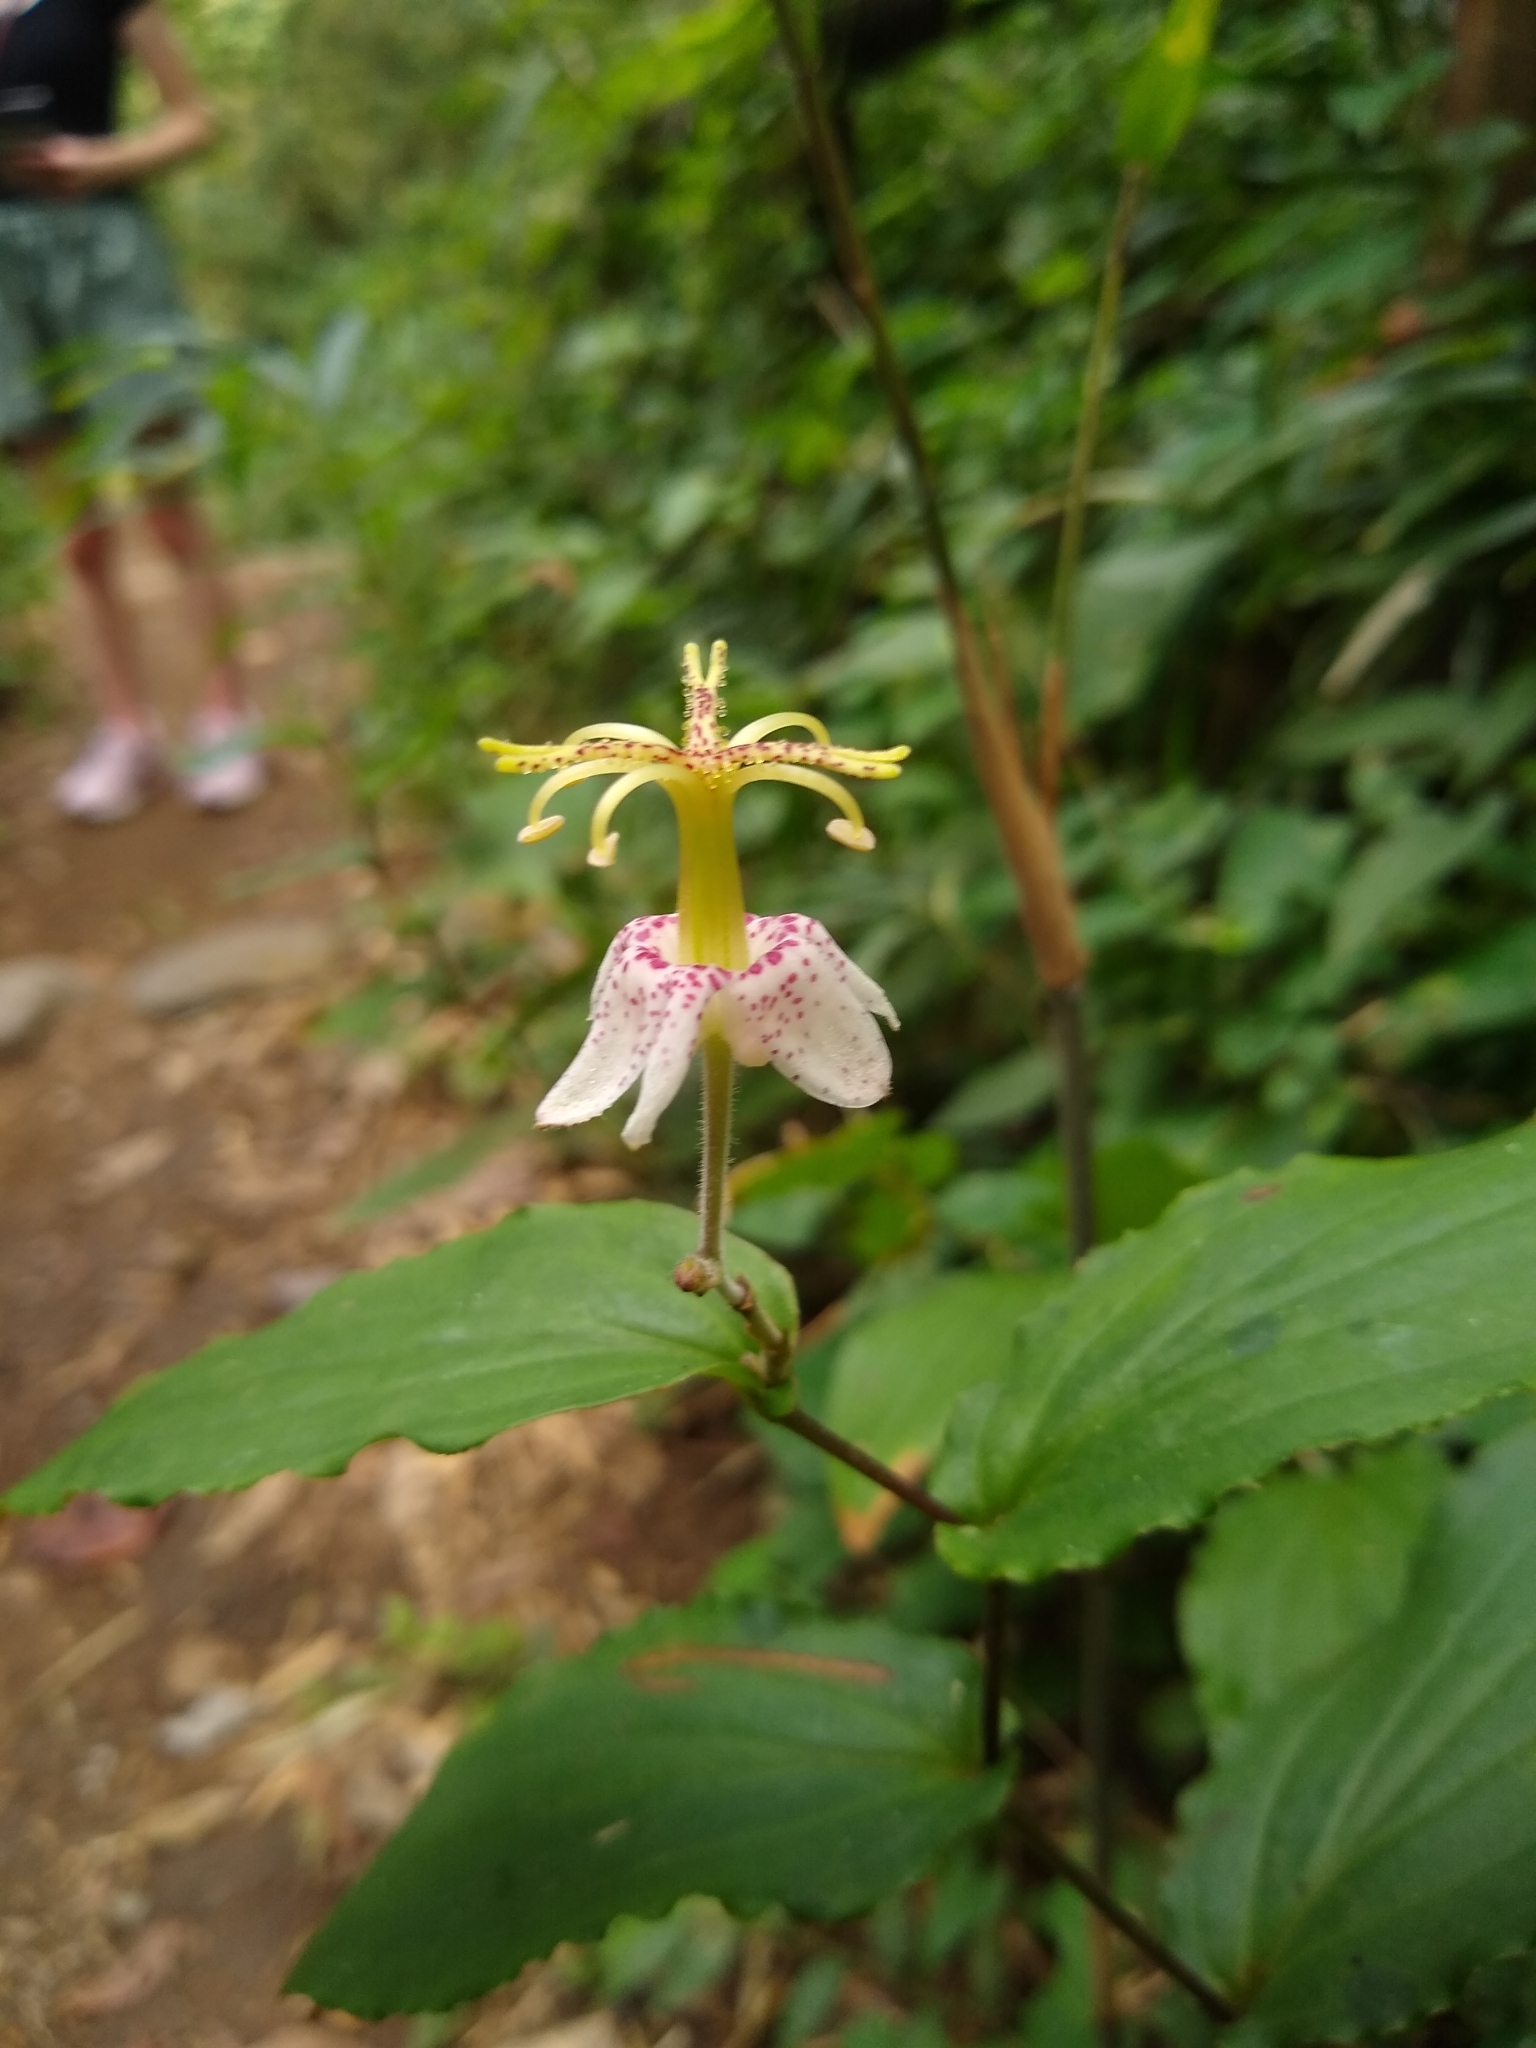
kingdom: Plantae
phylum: Tracheophyta
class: Liliopsida
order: Liliales
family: Liliaceae
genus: Tricyrtis
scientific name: Tricyrtis macropoda
